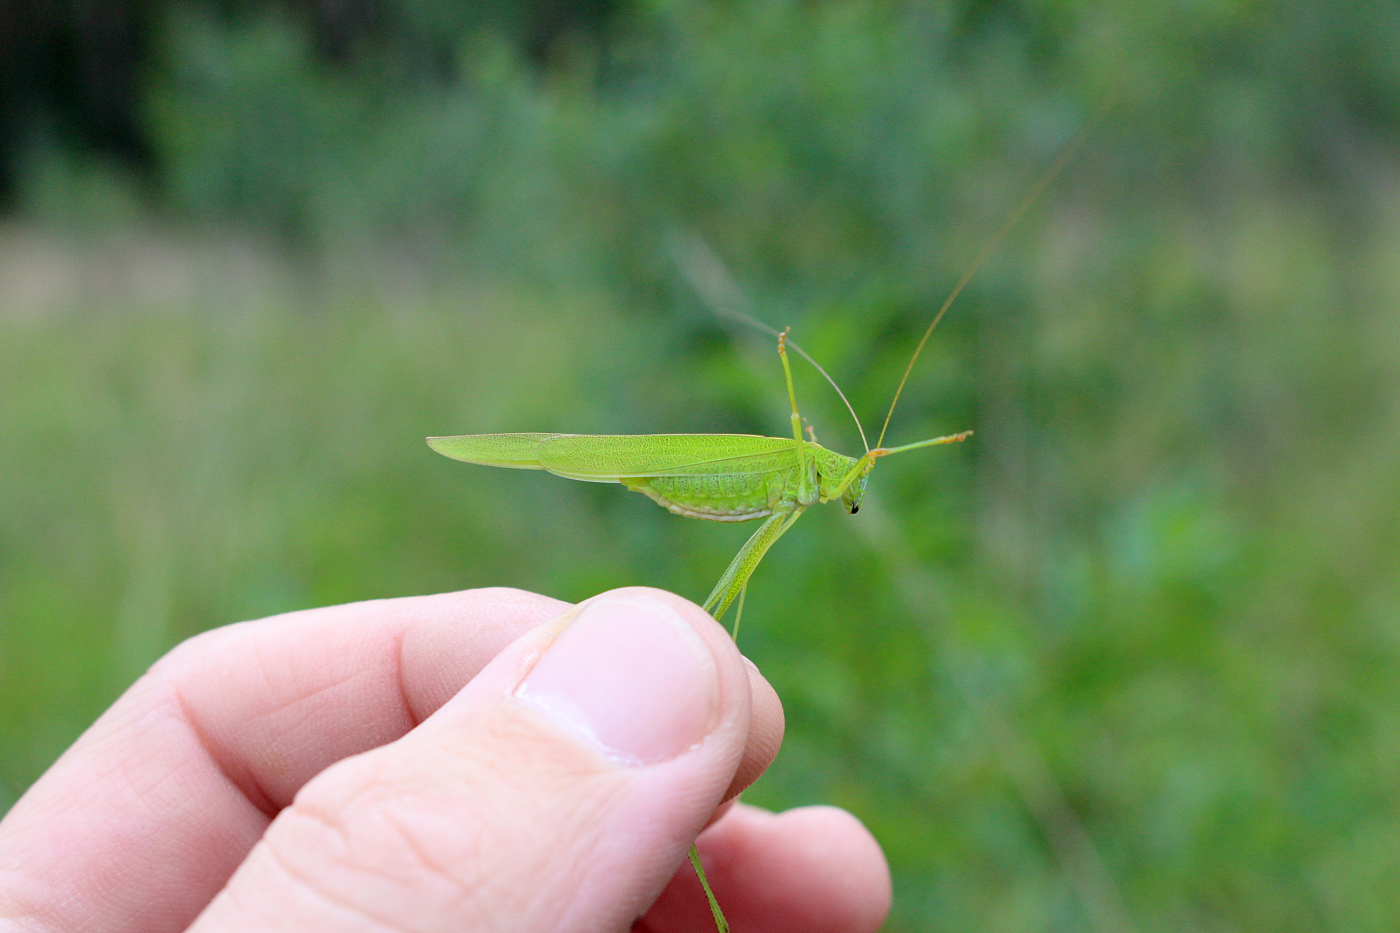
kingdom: Animalia
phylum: Arthropoda
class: Insecta
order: Orthoptera
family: Tettigoniidae
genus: Phaneroptera
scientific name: Phaneroptera falcata
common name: Sickle-bearing bush-cricket
